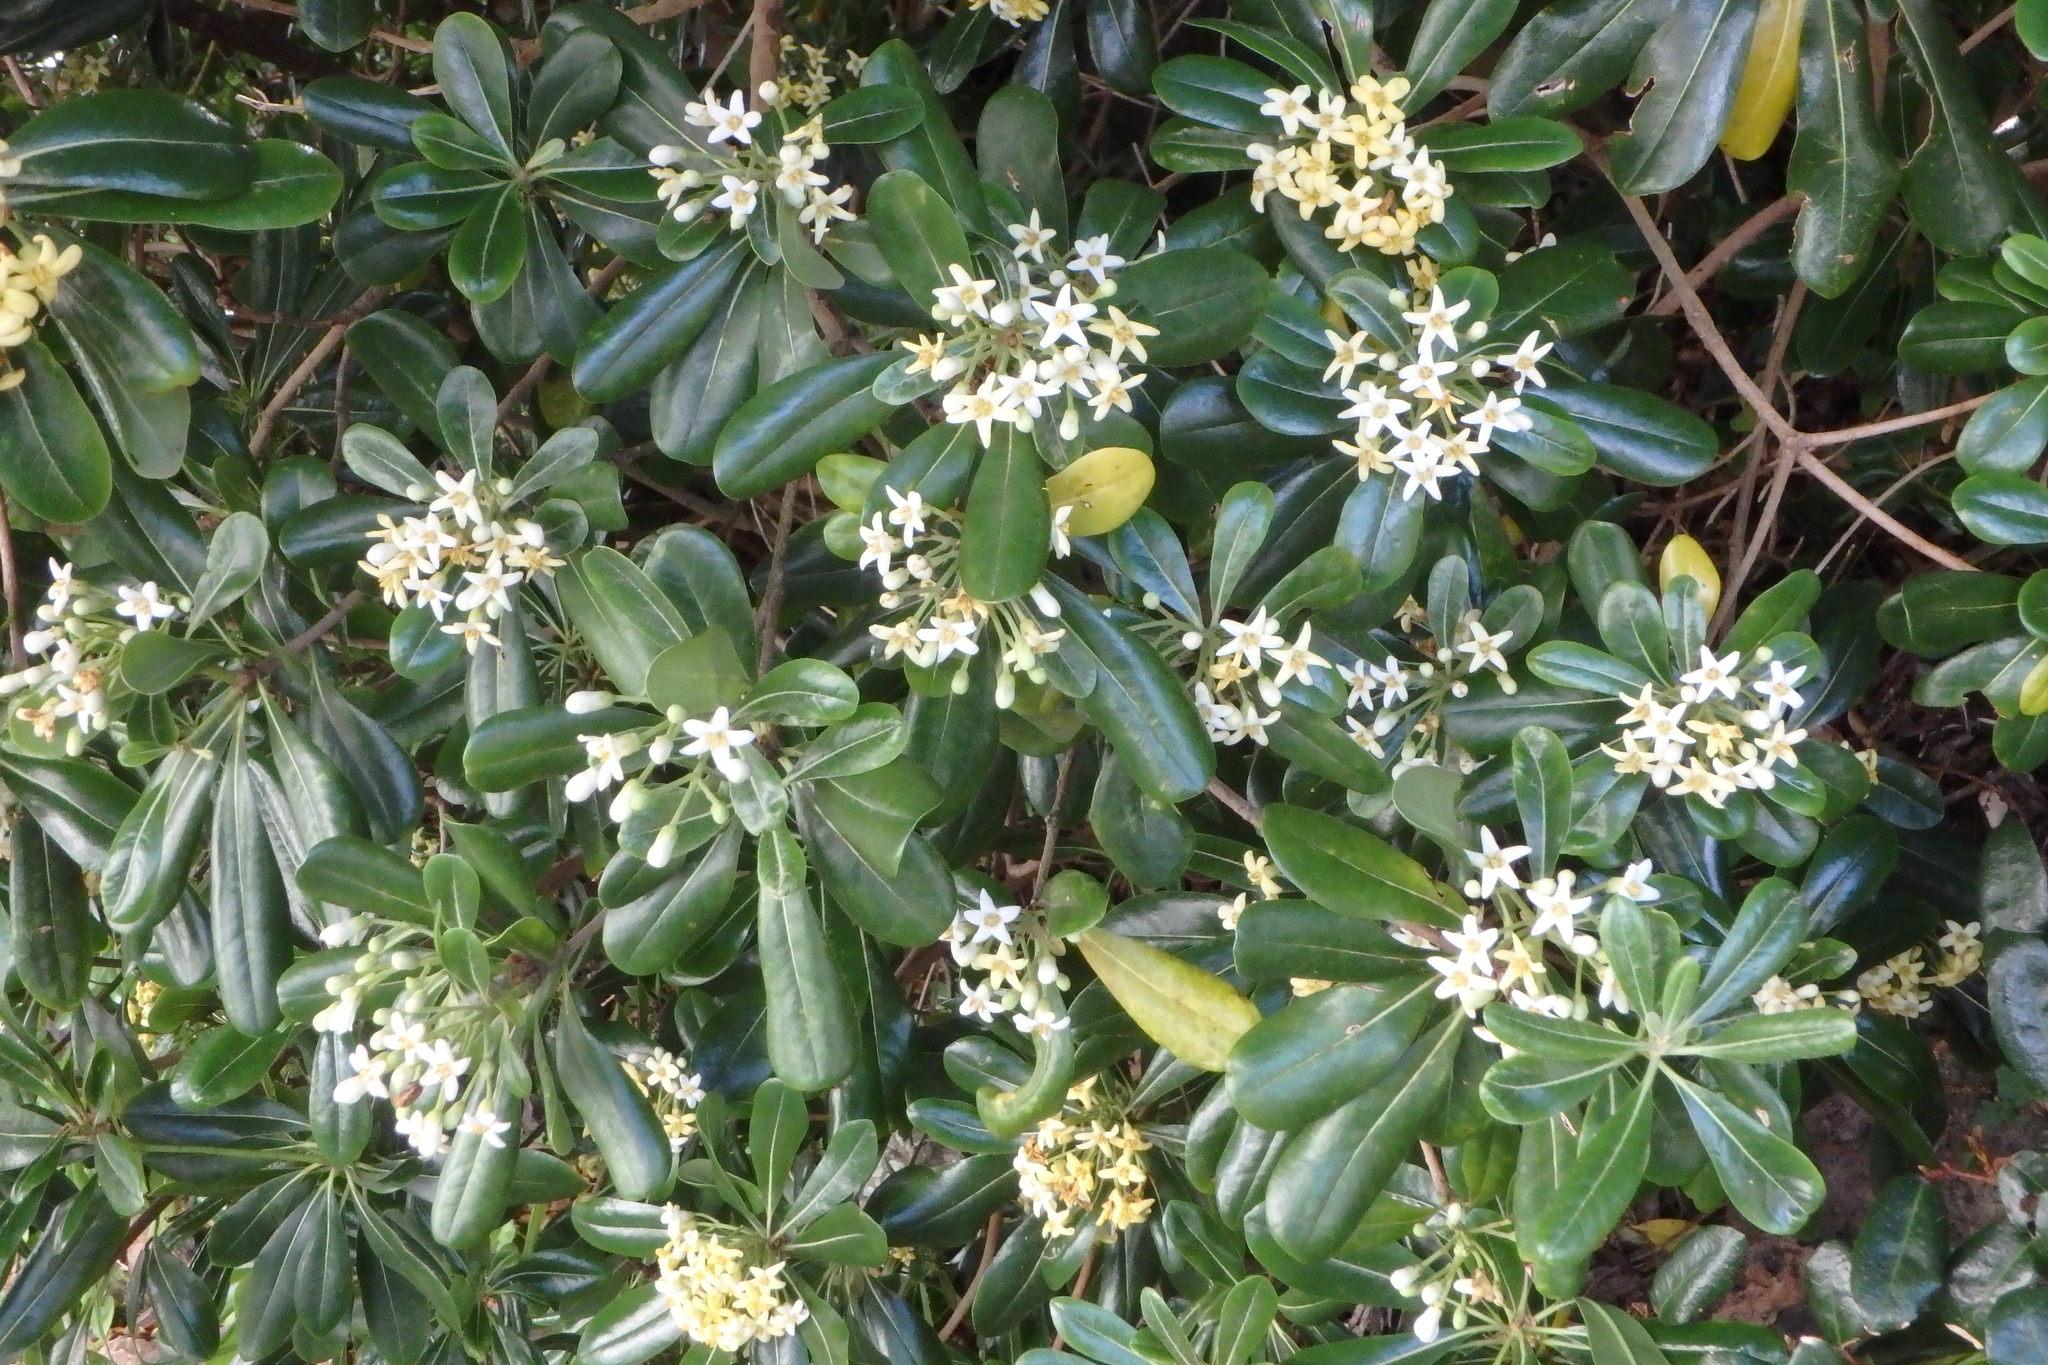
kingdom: Plantae
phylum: Tracheophyta
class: Magnoliopsida
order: Apiales
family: Pittosporaceae
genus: Pittosporum
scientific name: Pittosporum tobira
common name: Japanese cheesewood
